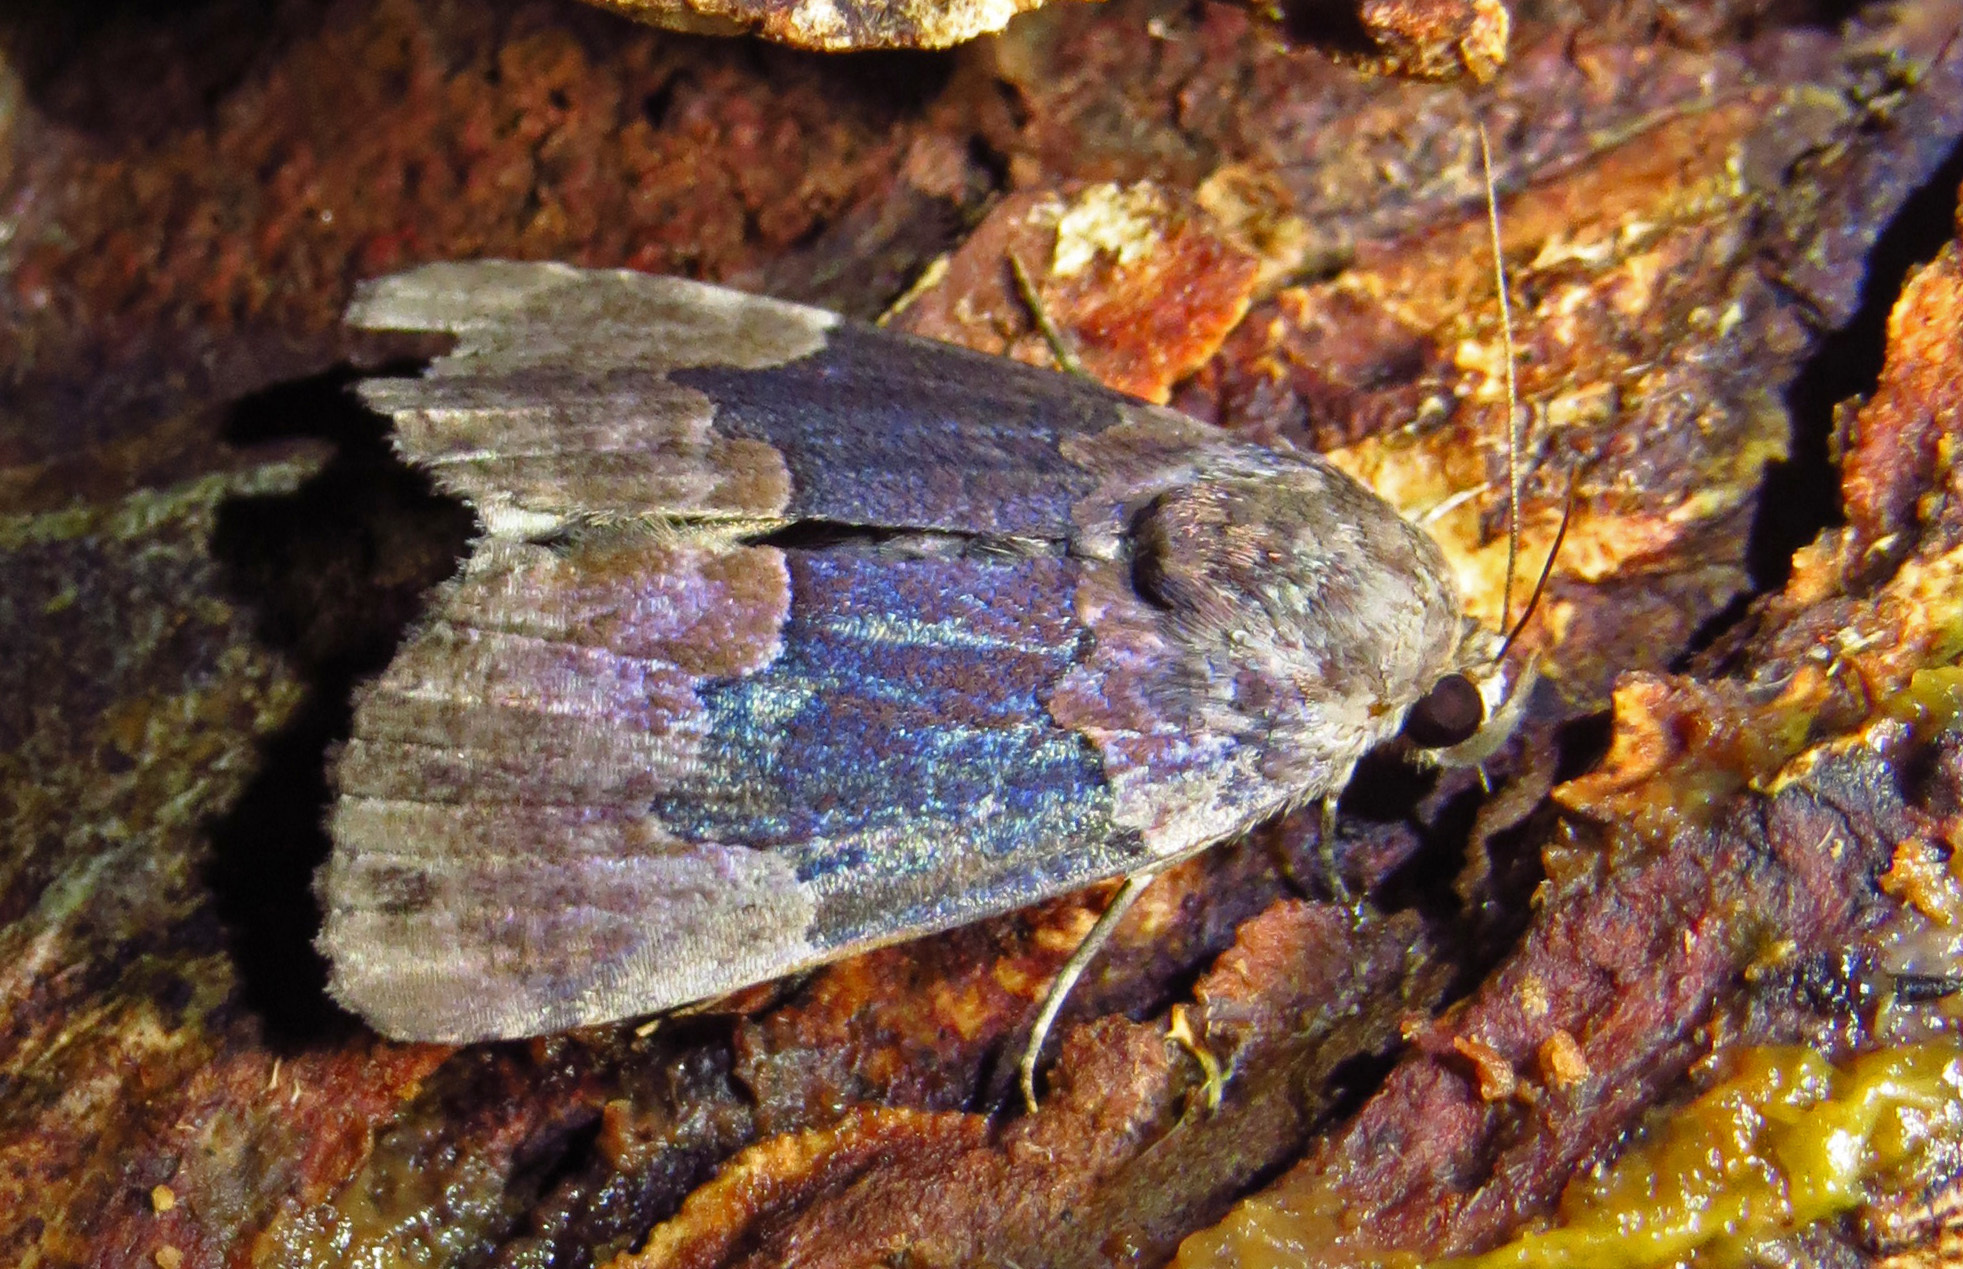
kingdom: Animalia
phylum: Arthropoda
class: Insecta
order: Lepidoptera
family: Erebidae
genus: Dinumma
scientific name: Dinumma deponens
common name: Purplish moth
